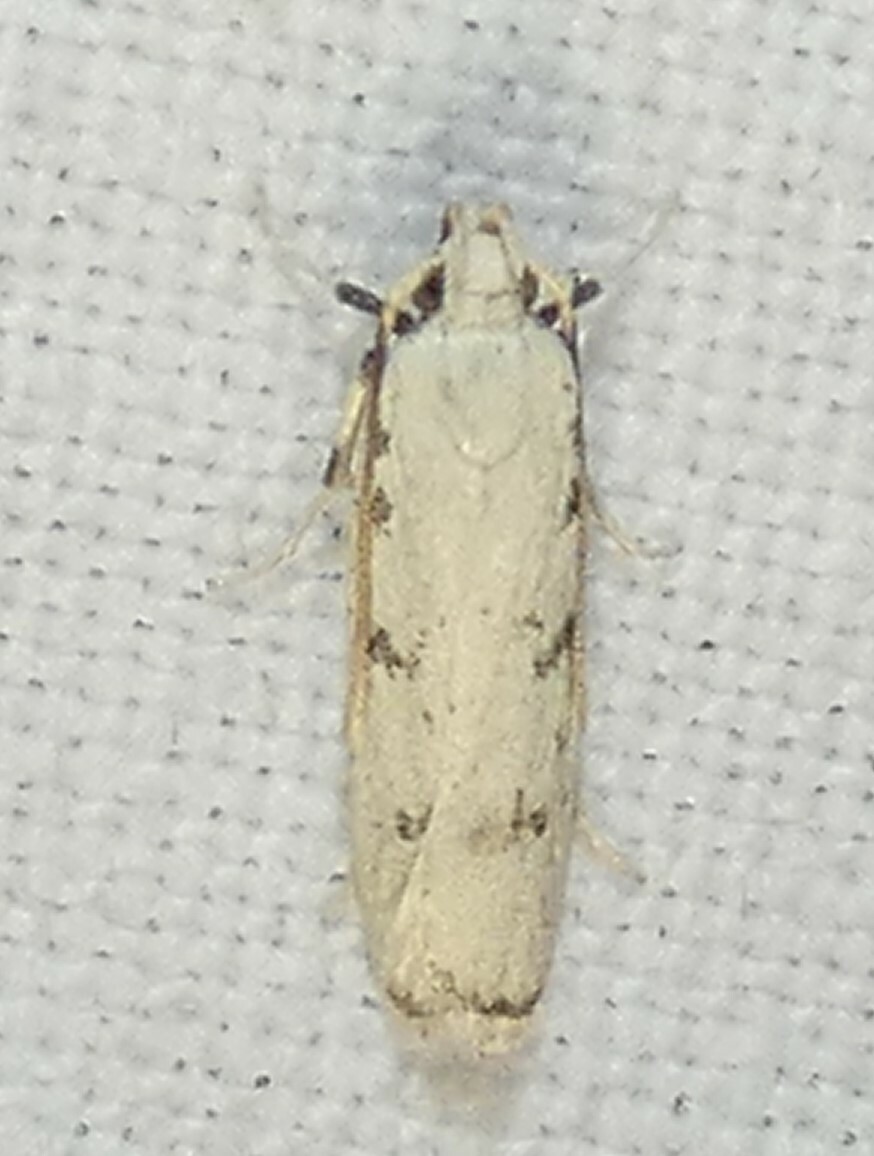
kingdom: Animalia
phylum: Arthropoda
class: Insecta
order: Lepidoptera
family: Autostichidae
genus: Glyphidocera
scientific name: Glyphidocera lactiflosella
